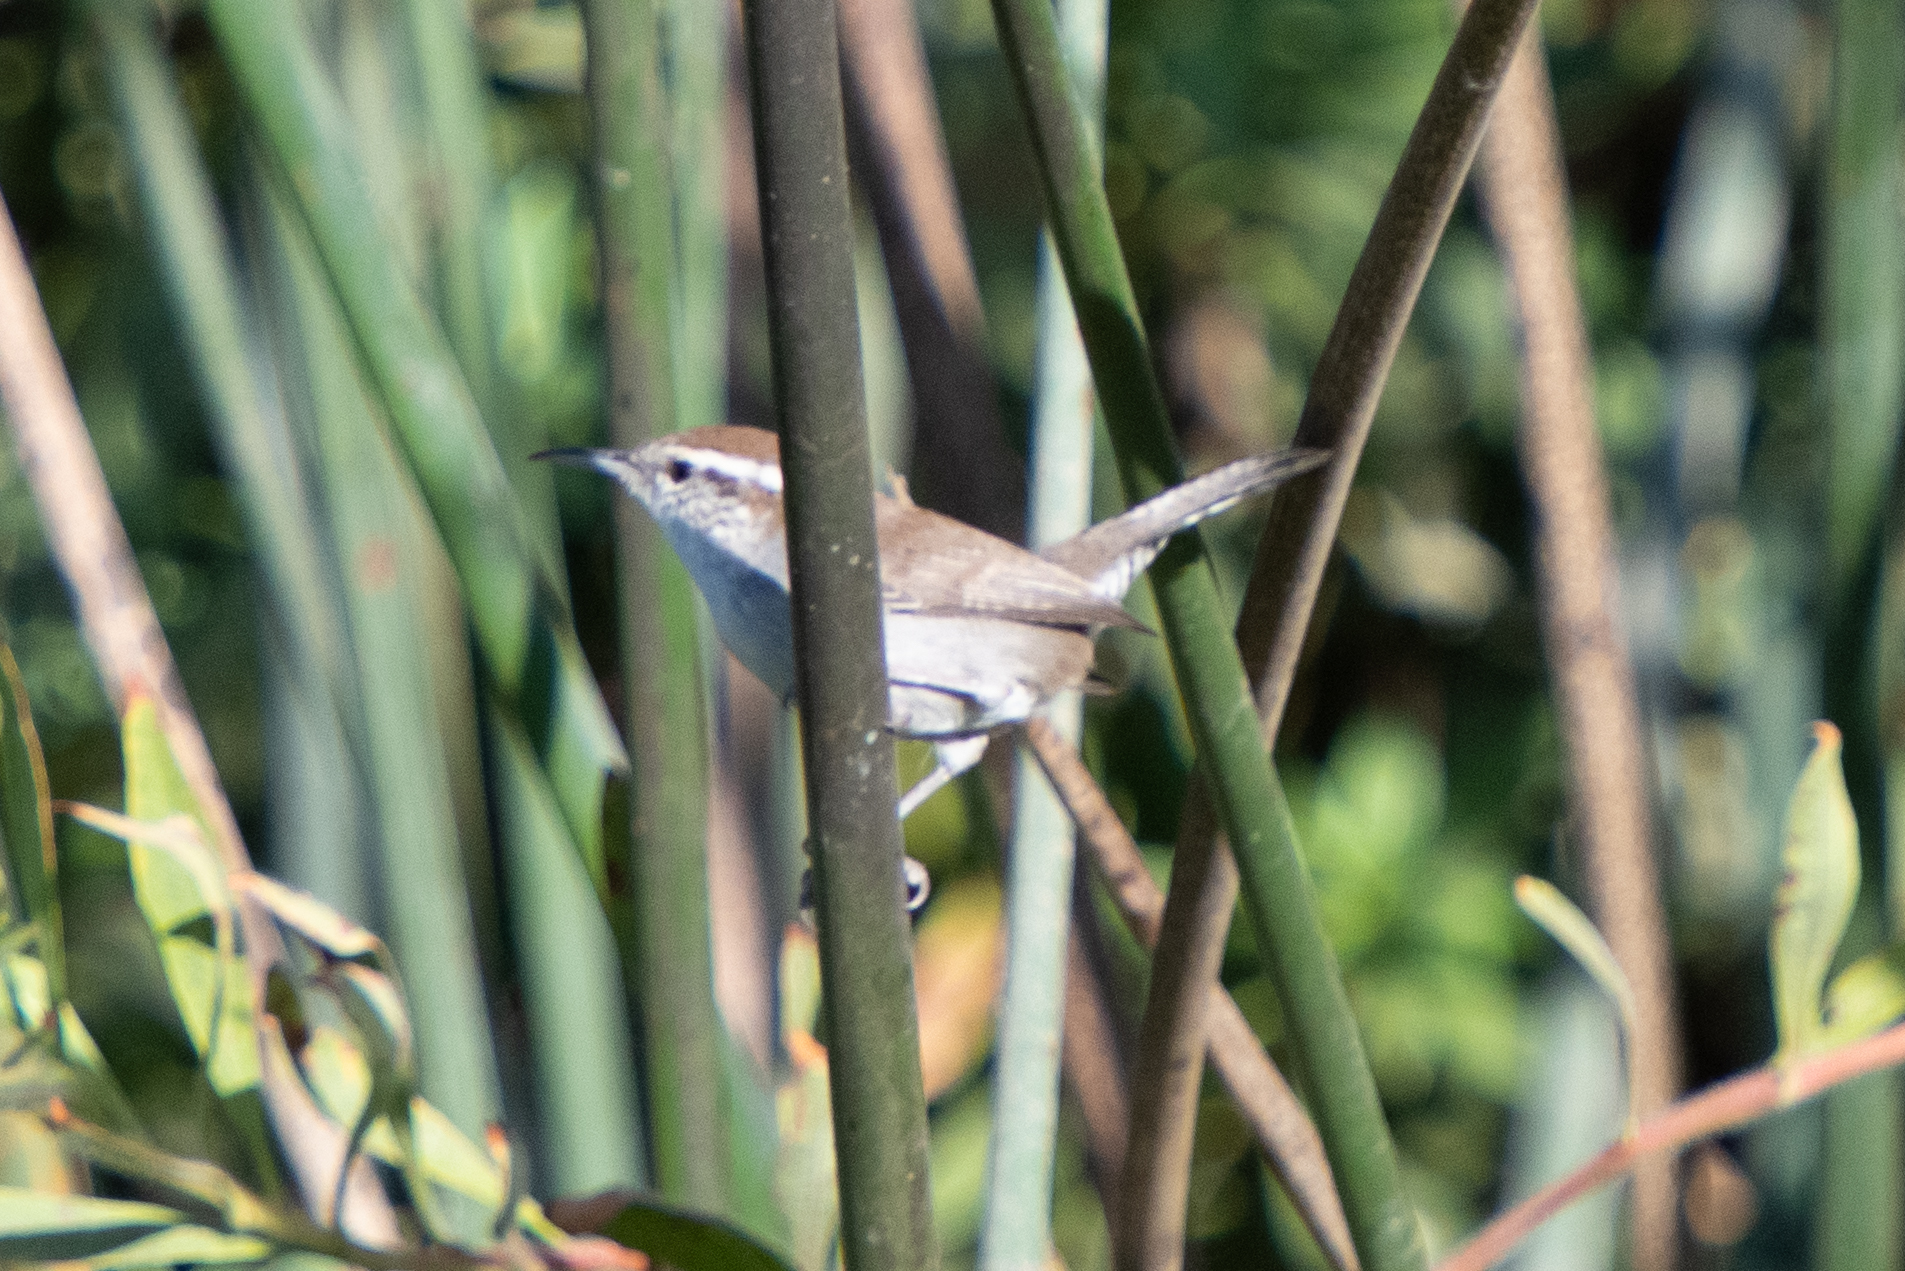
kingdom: Animalia
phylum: Chordata
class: Aves
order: Passeriformes
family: Troglodytidae
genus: Thryomanes
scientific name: Thryomanes bewickii
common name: Bewick's wren
